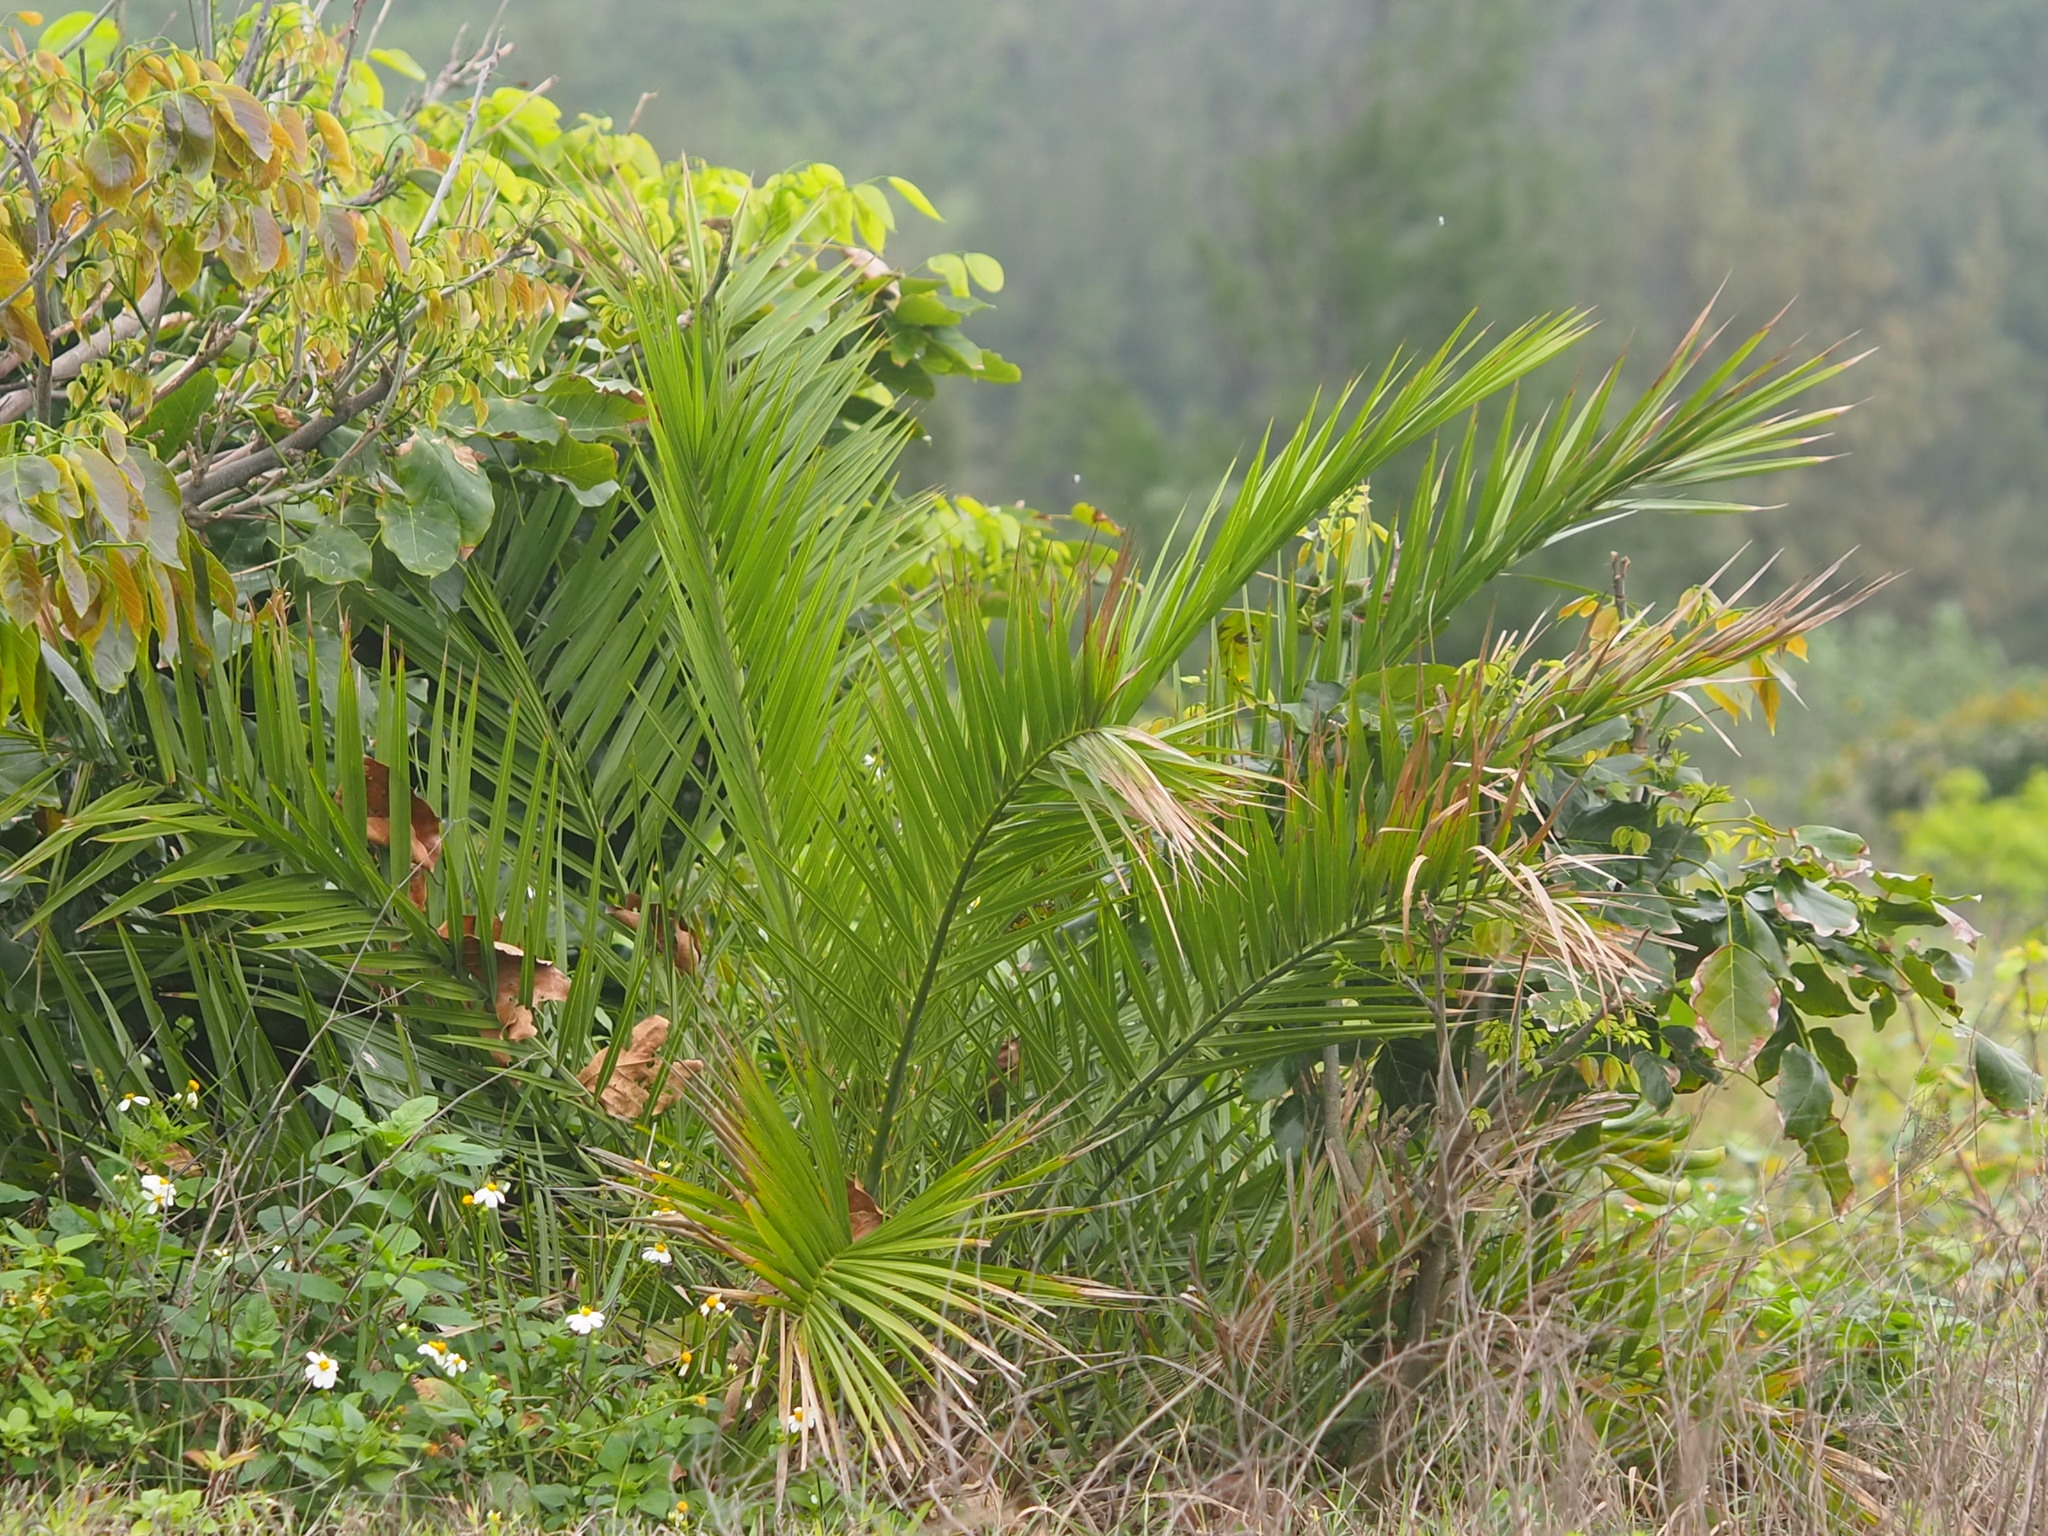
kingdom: Plantae
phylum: Tracheophyta
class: Liliopsida
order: Arecales
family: Arecaceae
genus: Phoenix
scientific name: Phoenix loureiroi
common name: Loureiro's palm
